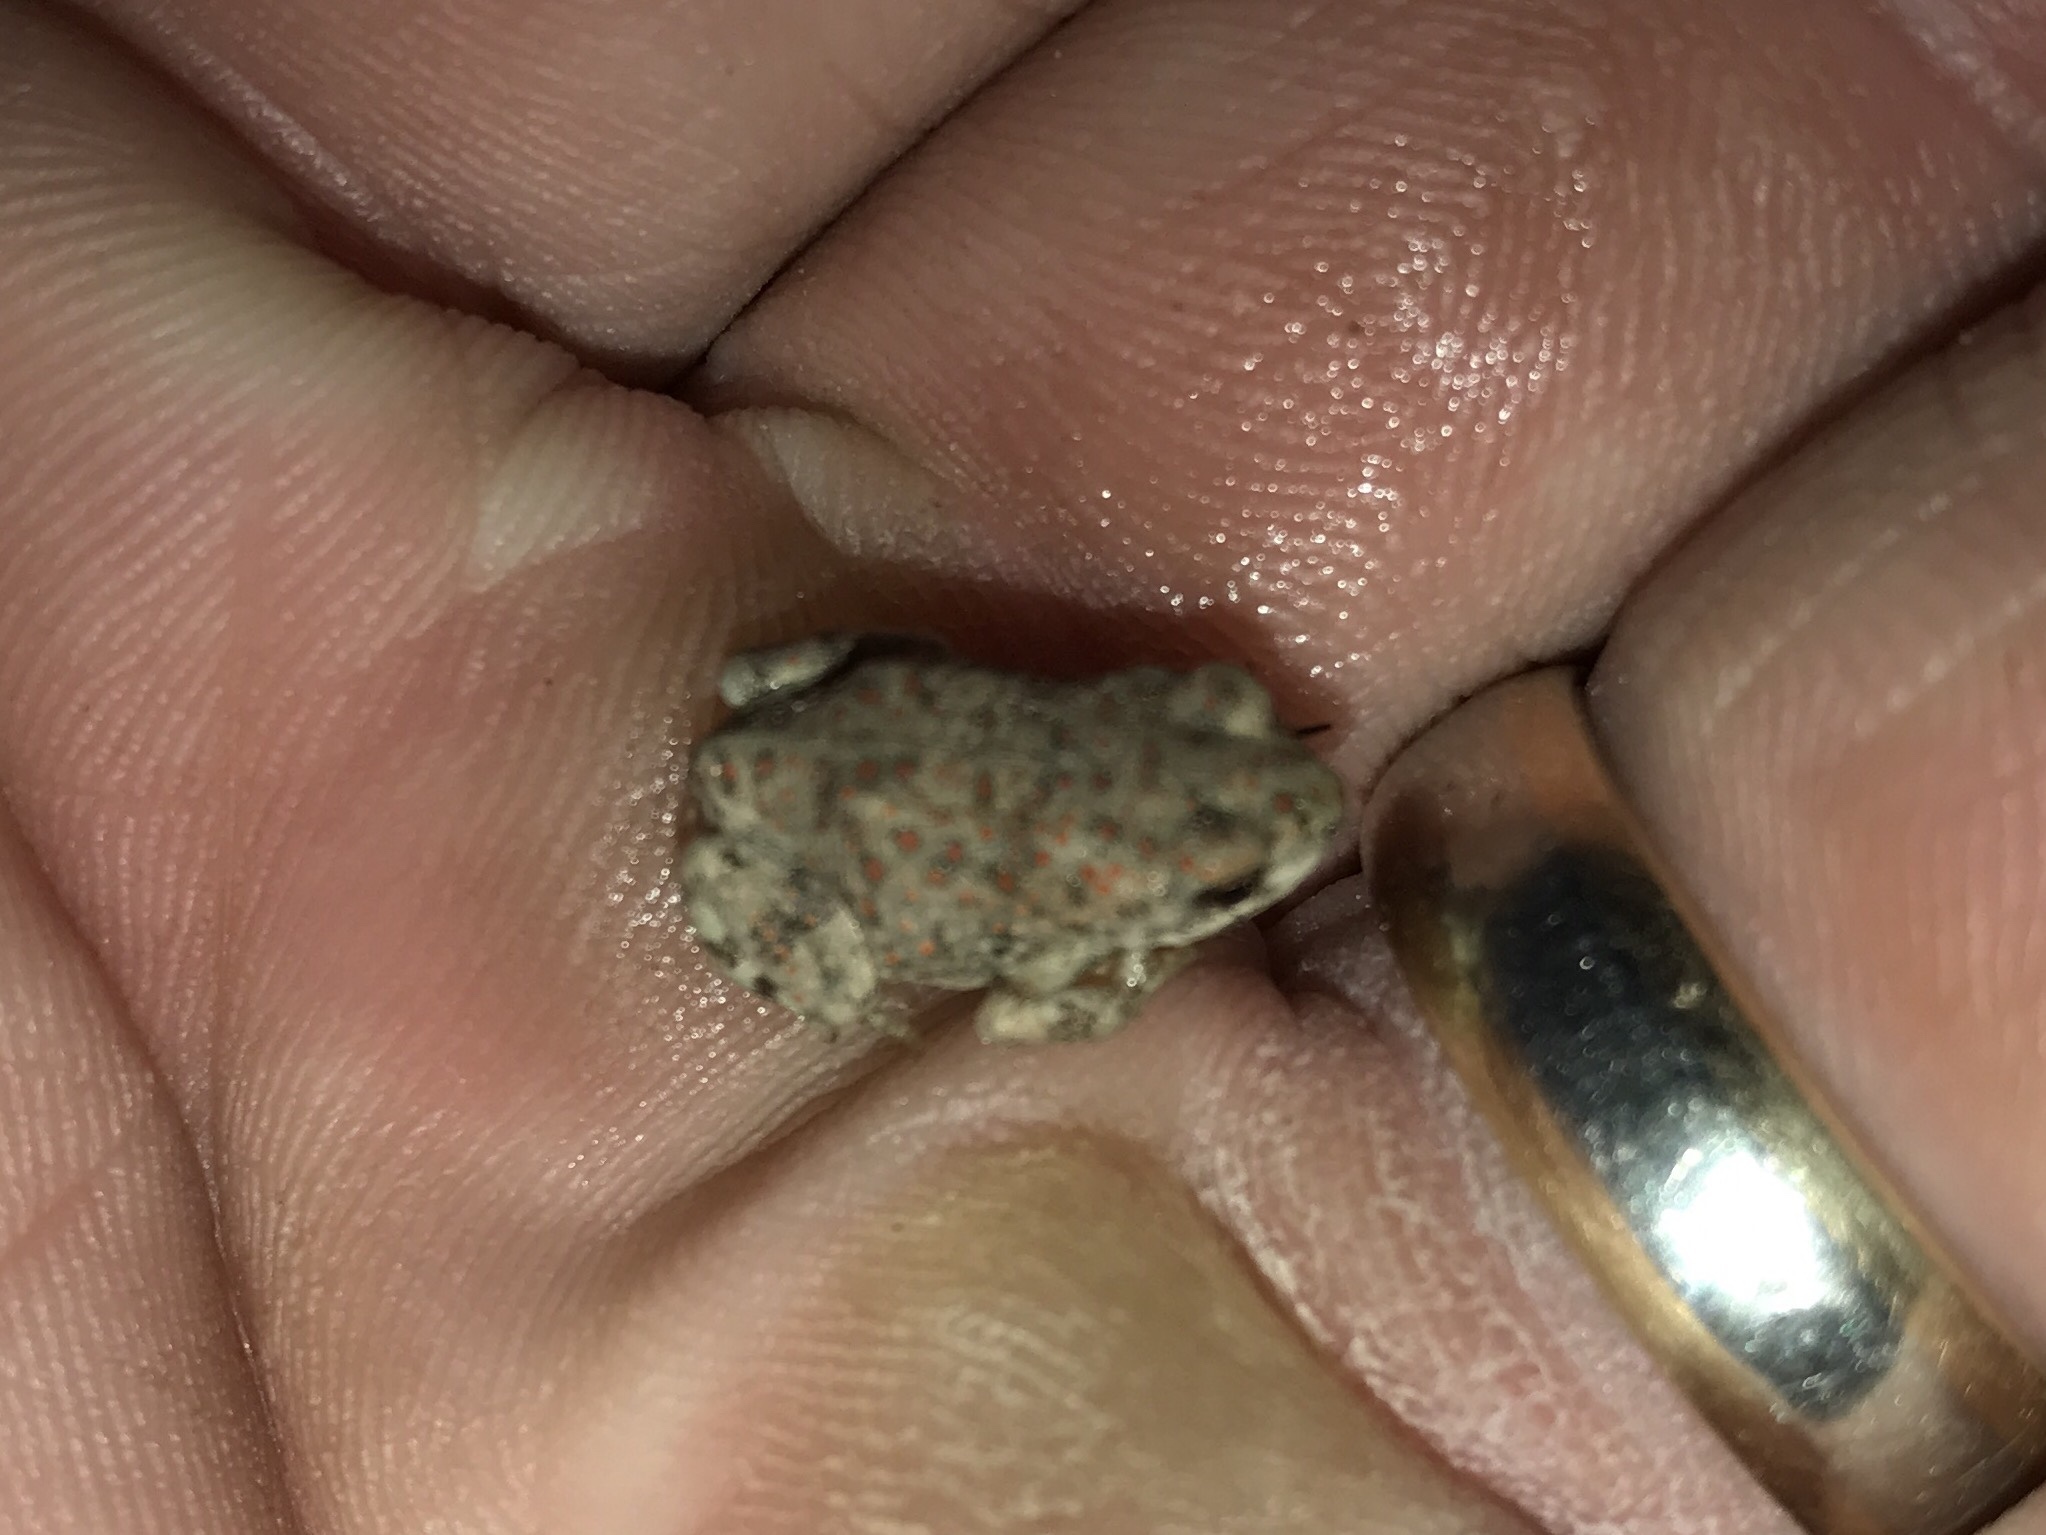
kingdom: Animalia
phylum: Chordata
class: Amphibia
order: Anura
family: Bufonidae
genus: Anaxyrus
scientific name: Anaxyrus punctatus
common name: Red-spotted toad
